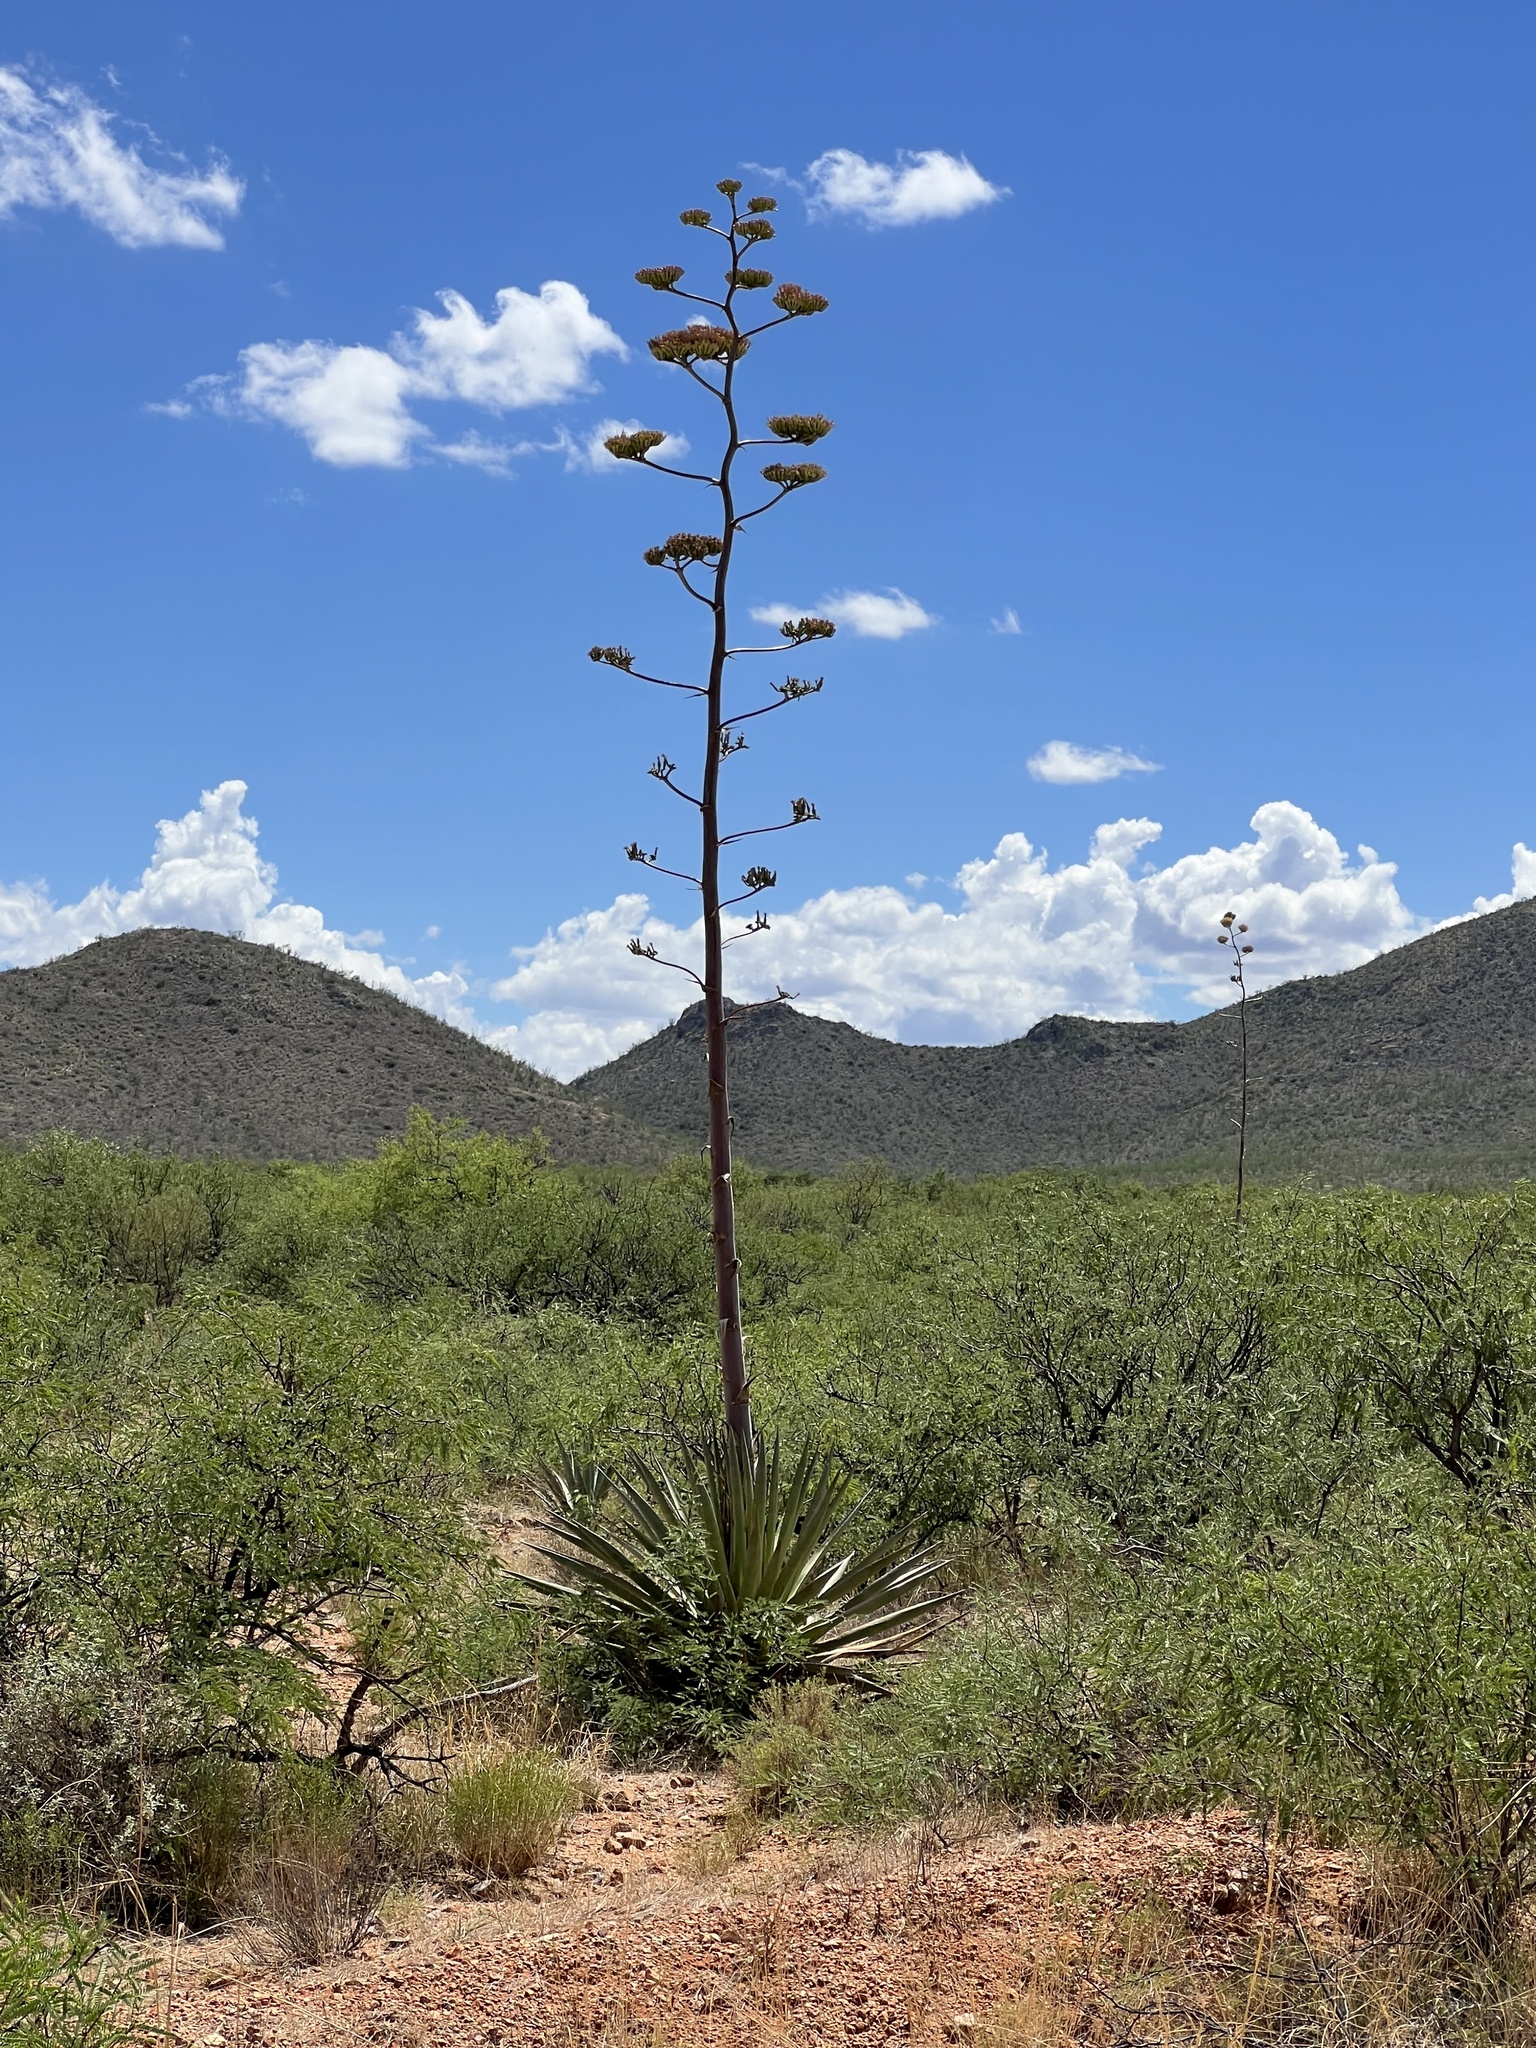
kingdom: Plantae
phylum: Tracheophyta
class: Liliopsida
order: Asparagales
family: Asparagaceae
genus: Agave
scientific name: Agave palmeri
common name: Palmer agave
